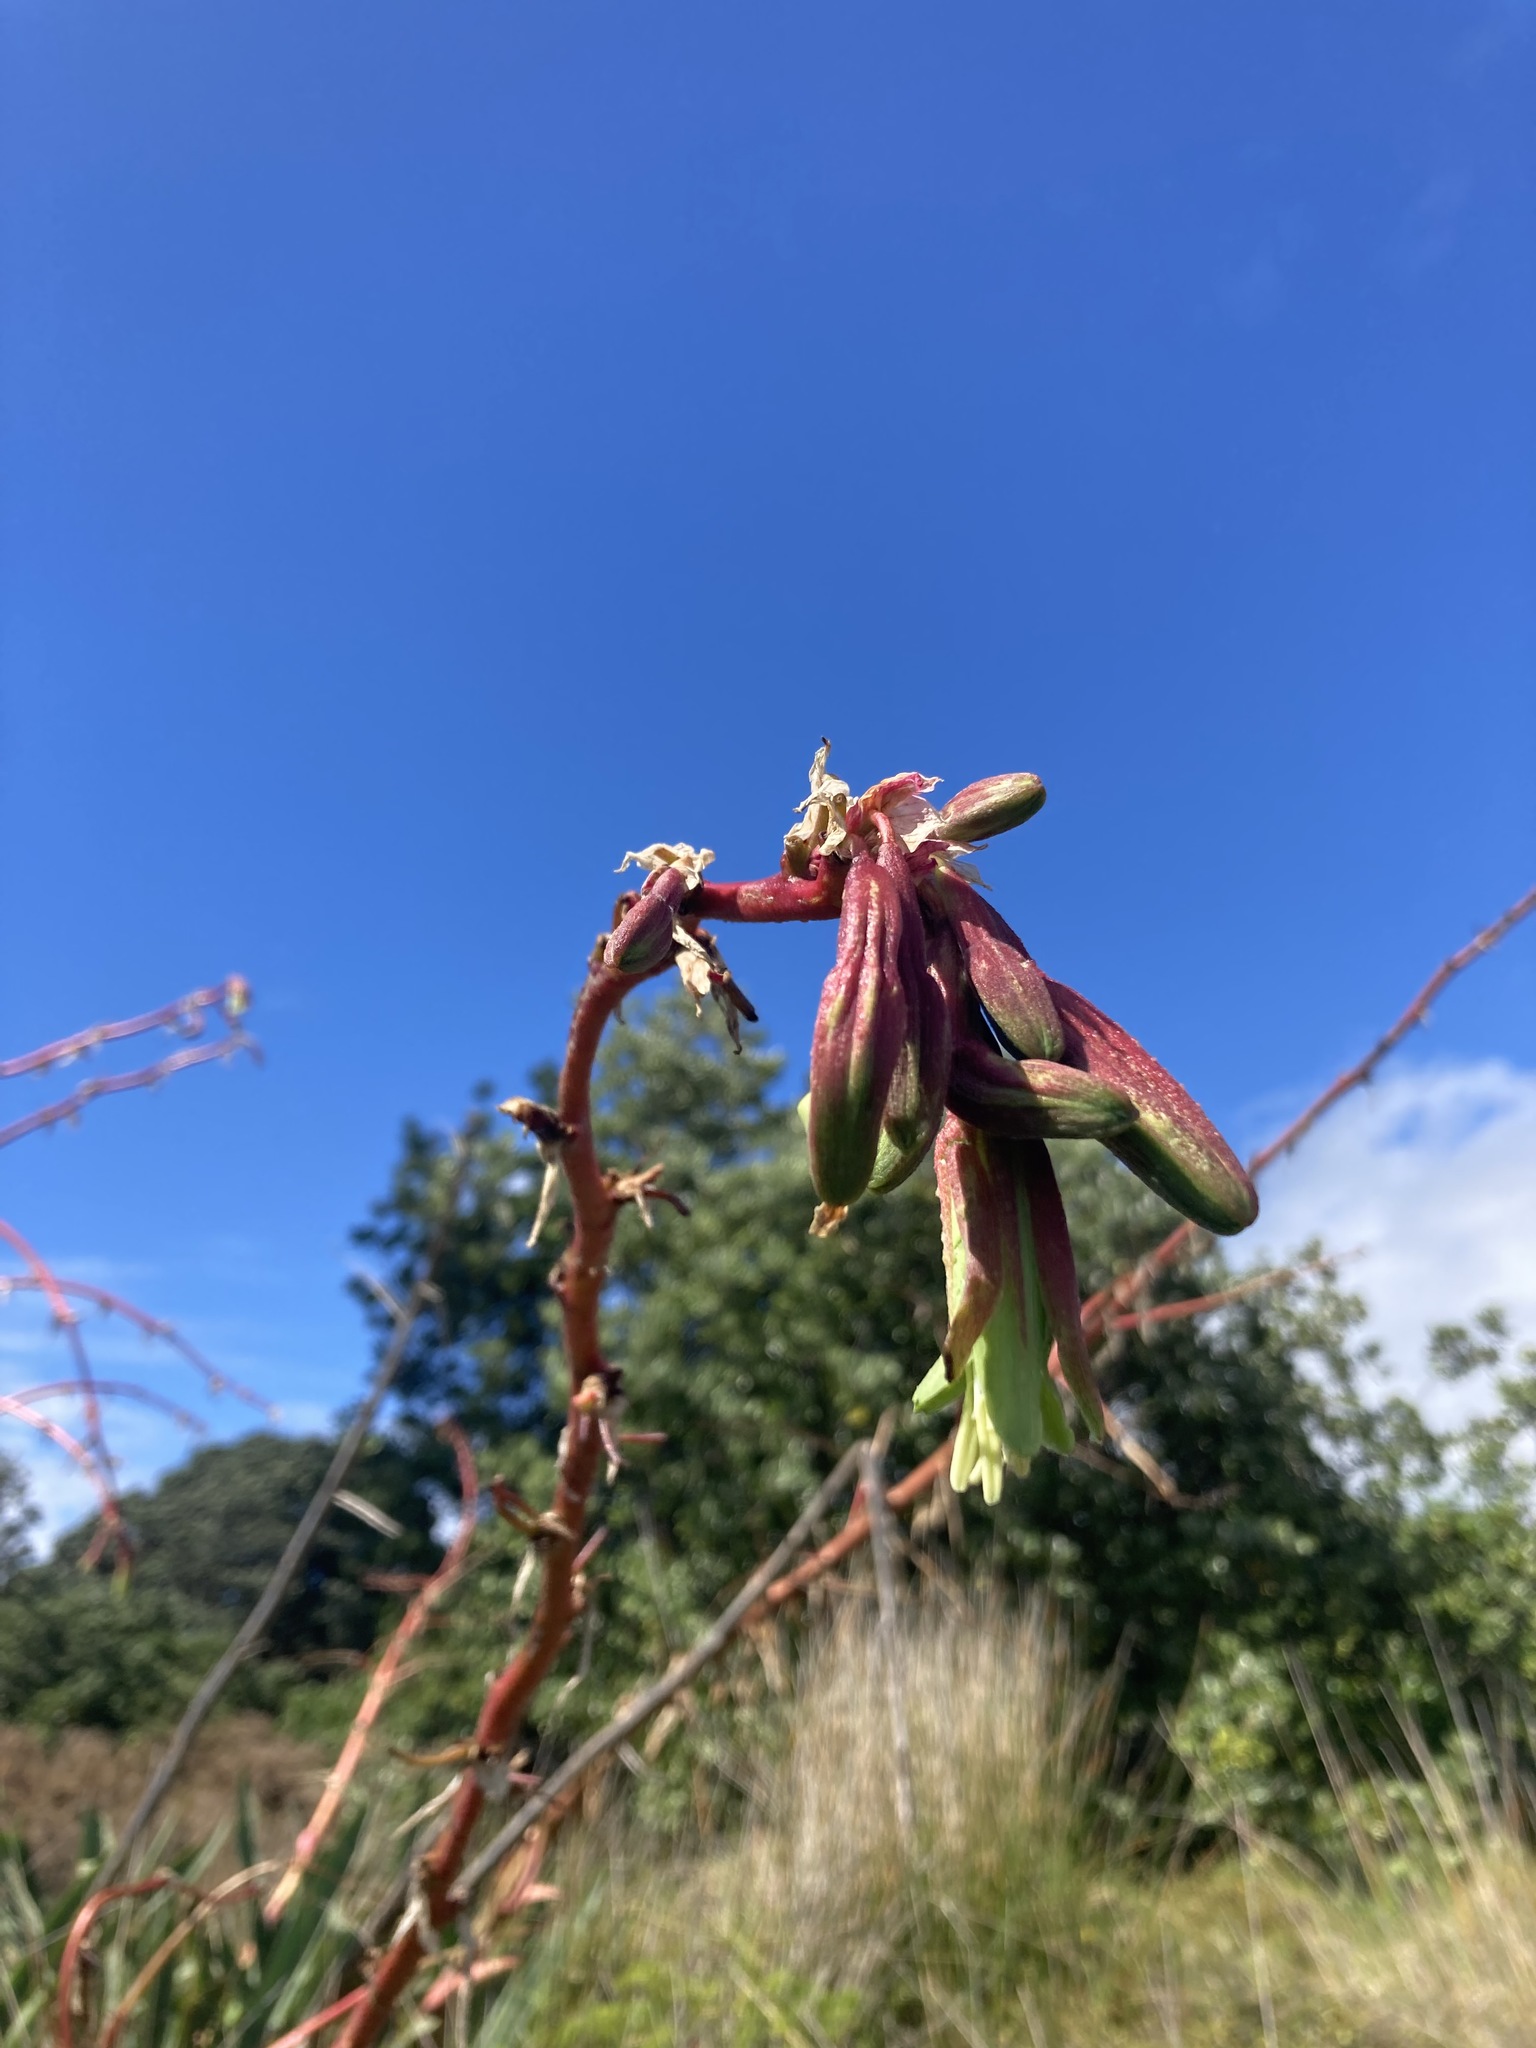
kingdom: Plantae
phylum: Tracheophyta
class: Liliopsida
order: Asparagales
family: Asparagaceae
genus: Beschorneria
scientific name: Beschorneria yuccoides
